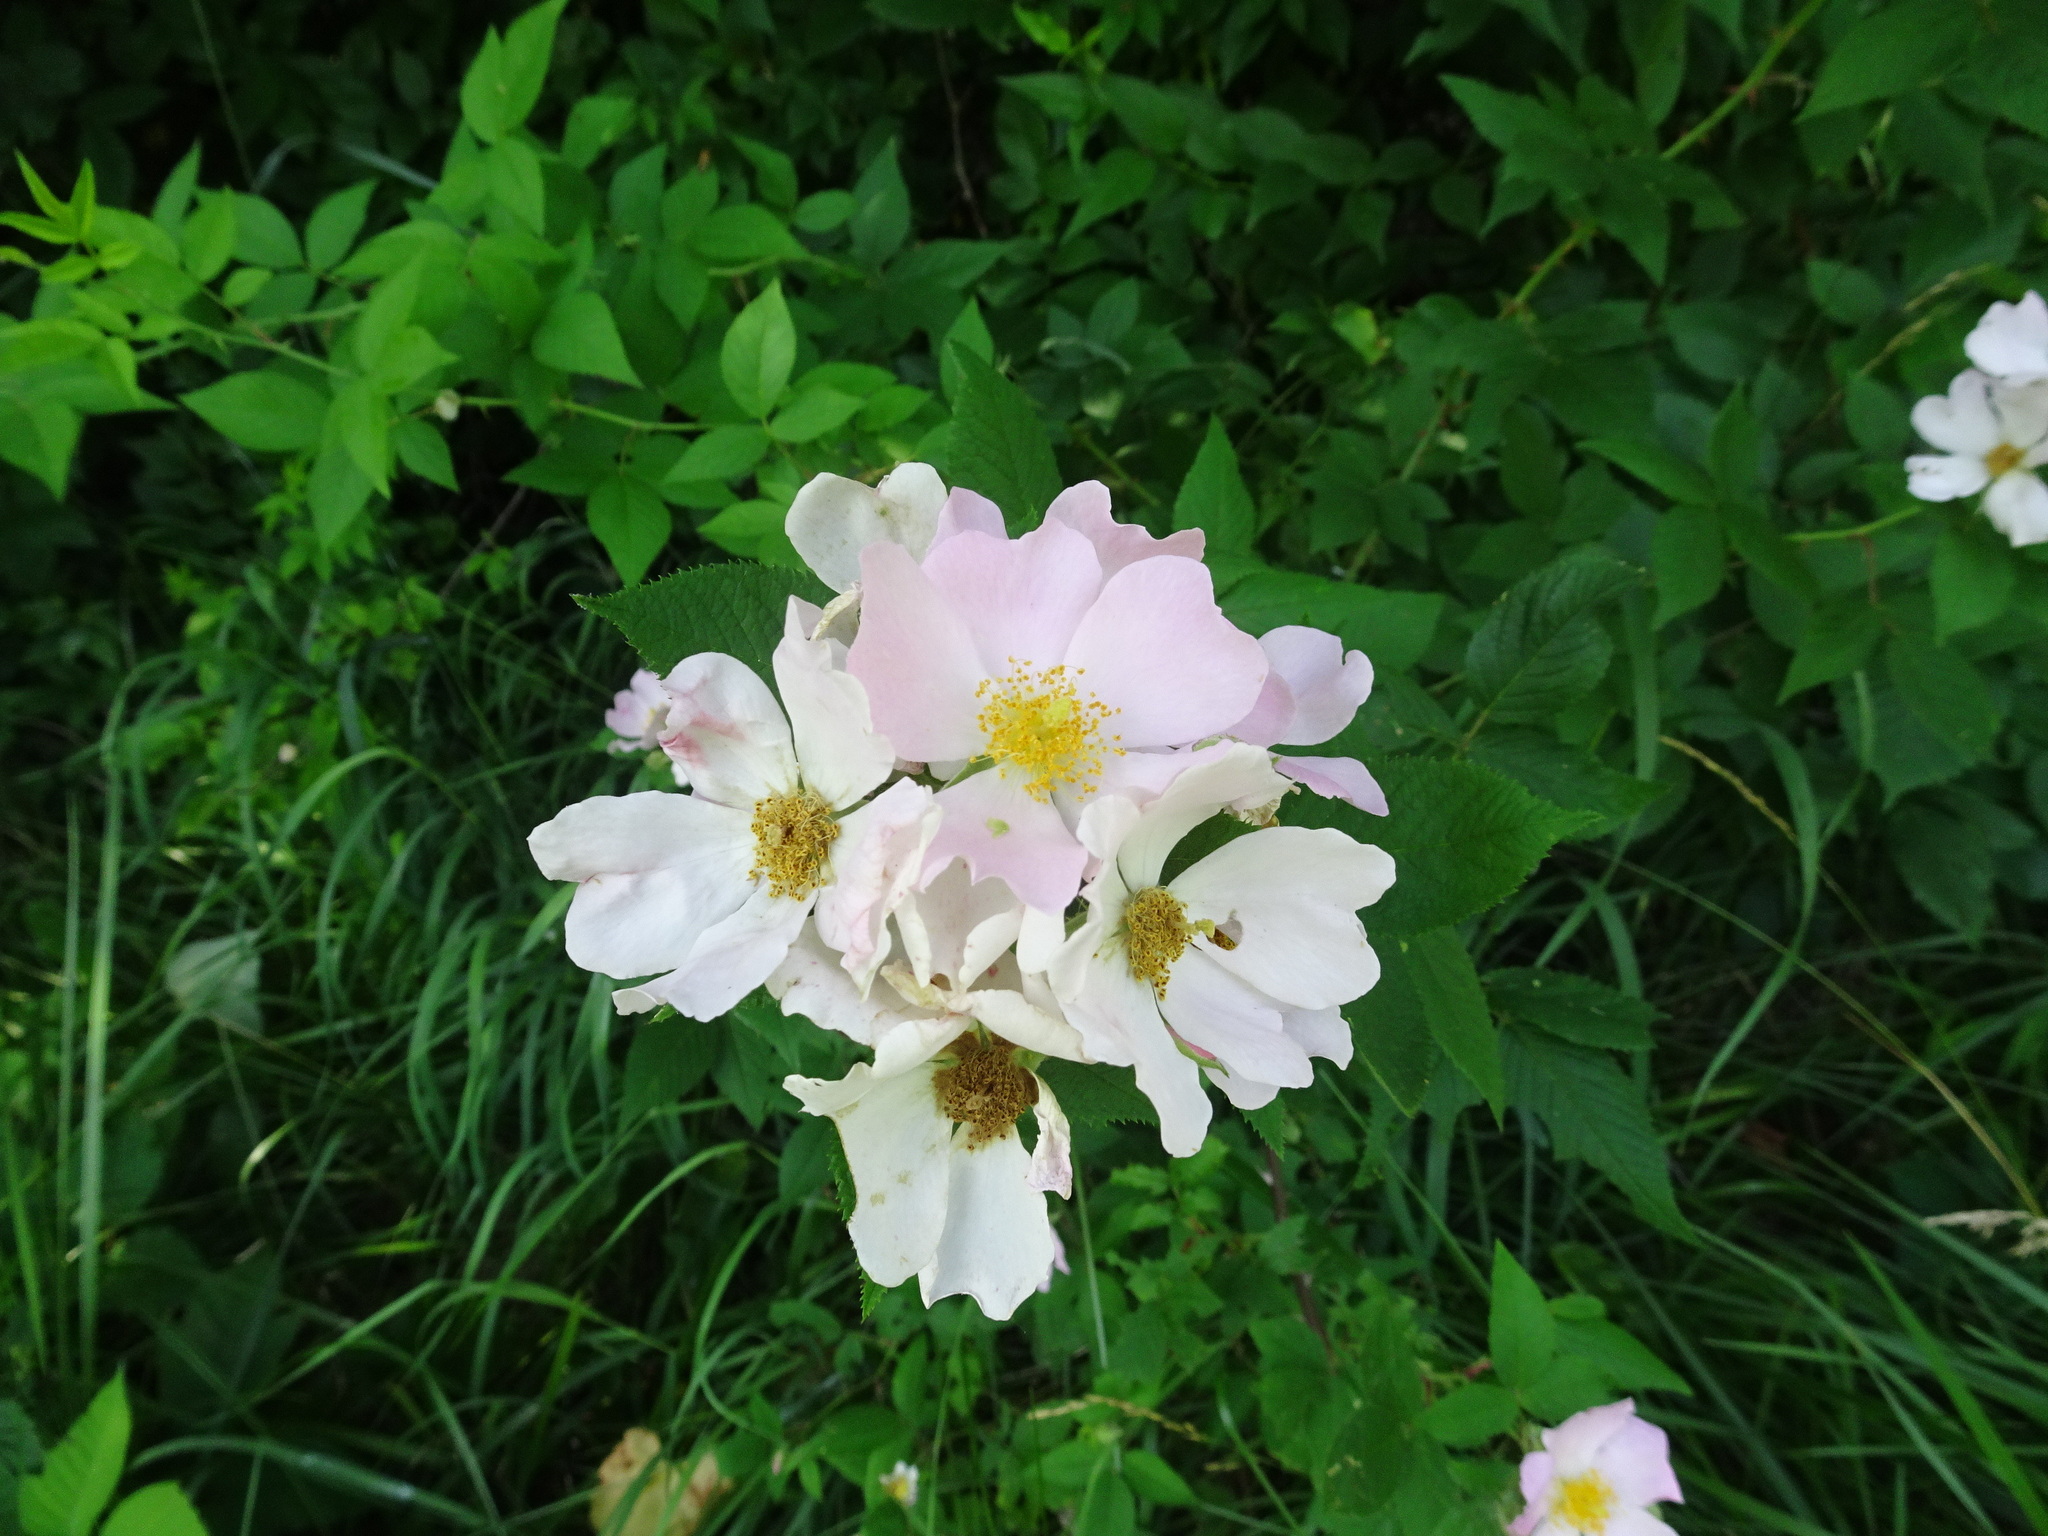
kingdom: Plantae
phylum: Tracheophyta
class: Magnoliopsida
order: Rosales
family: Rosaceae
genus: Rosa
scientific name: Rosa setigera
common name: Prairie rose
